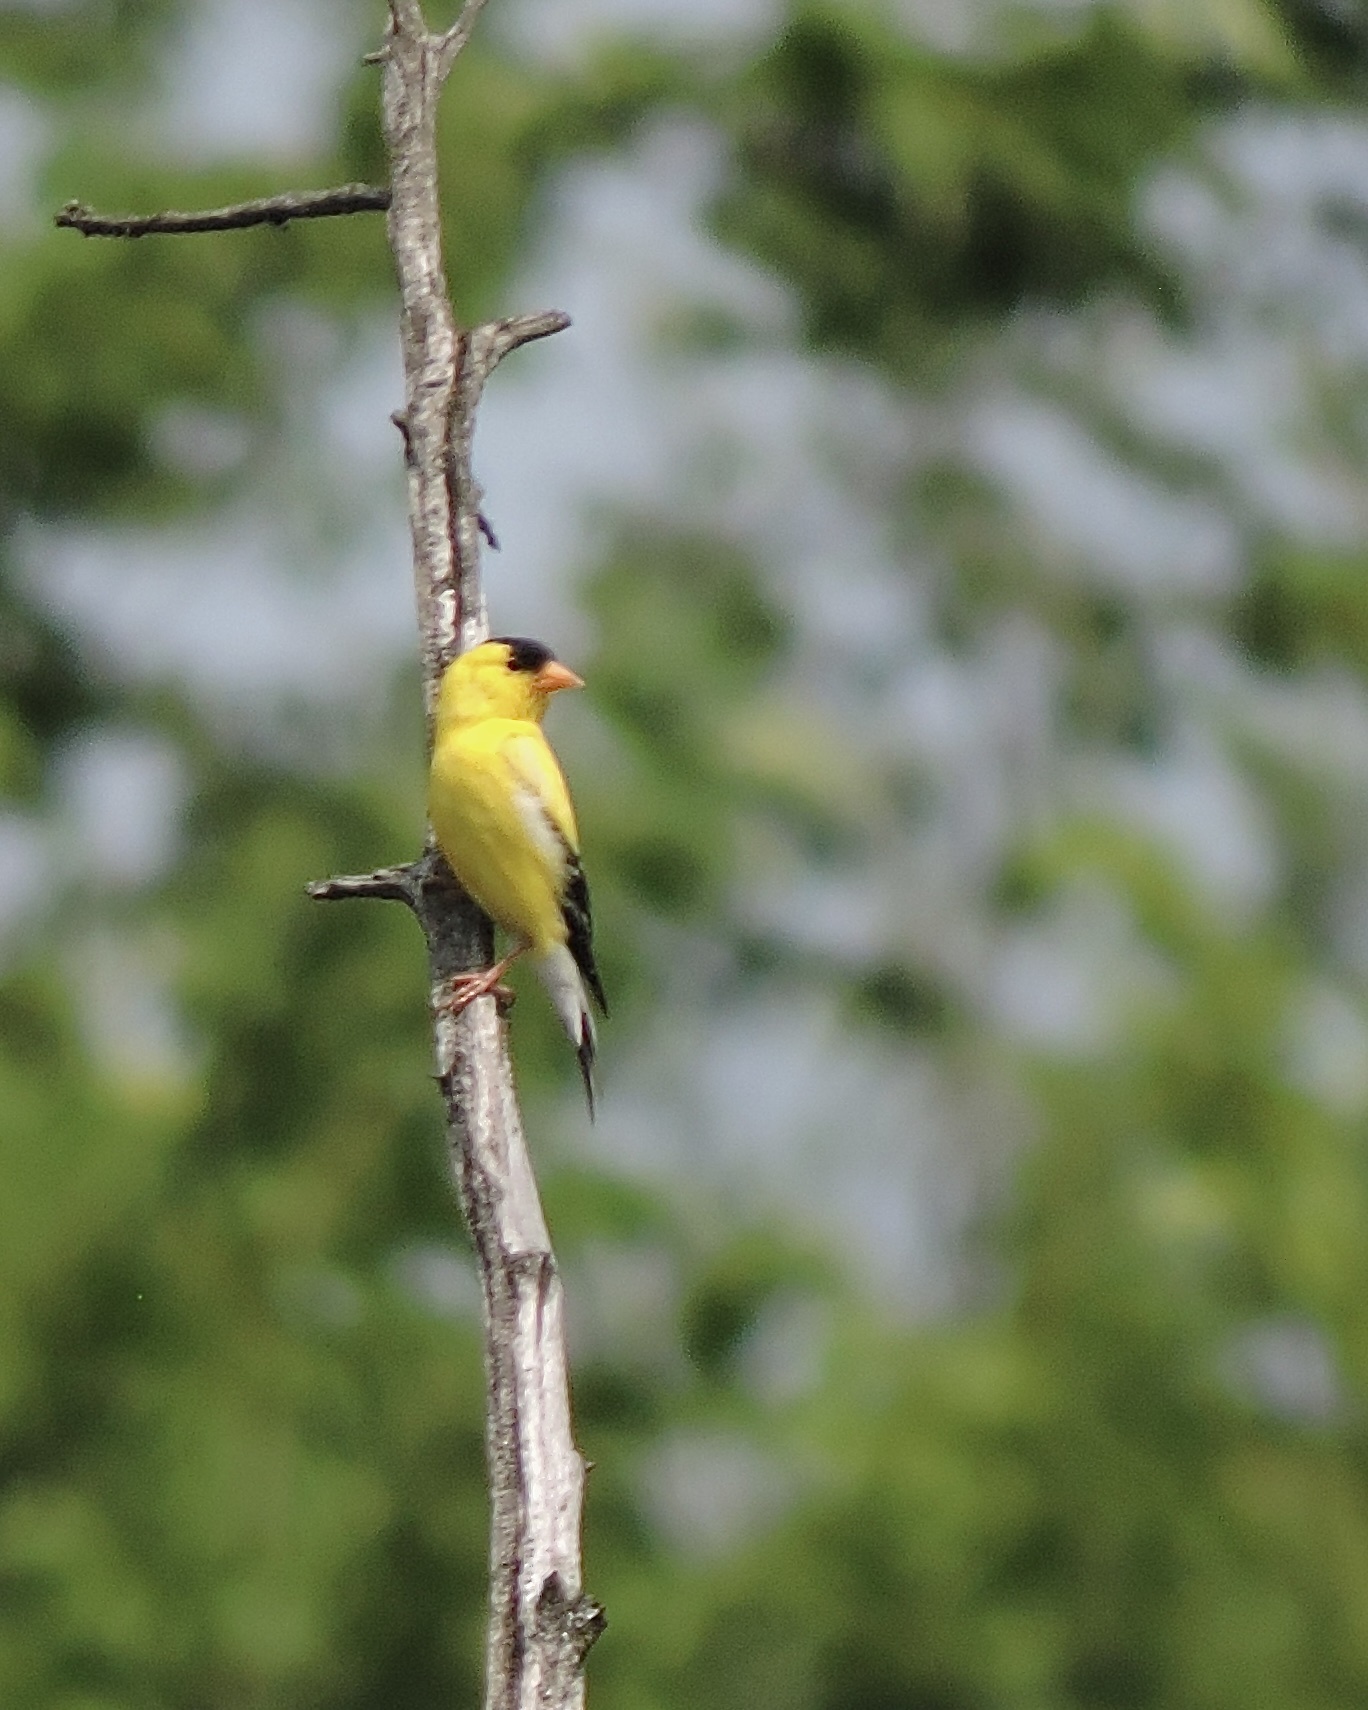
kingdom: Animalia
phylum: Chordata
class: Aves
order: Passeriformes
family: Fringillidae
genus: Spinus
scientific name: Spinus tristis
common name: American goldfinch
